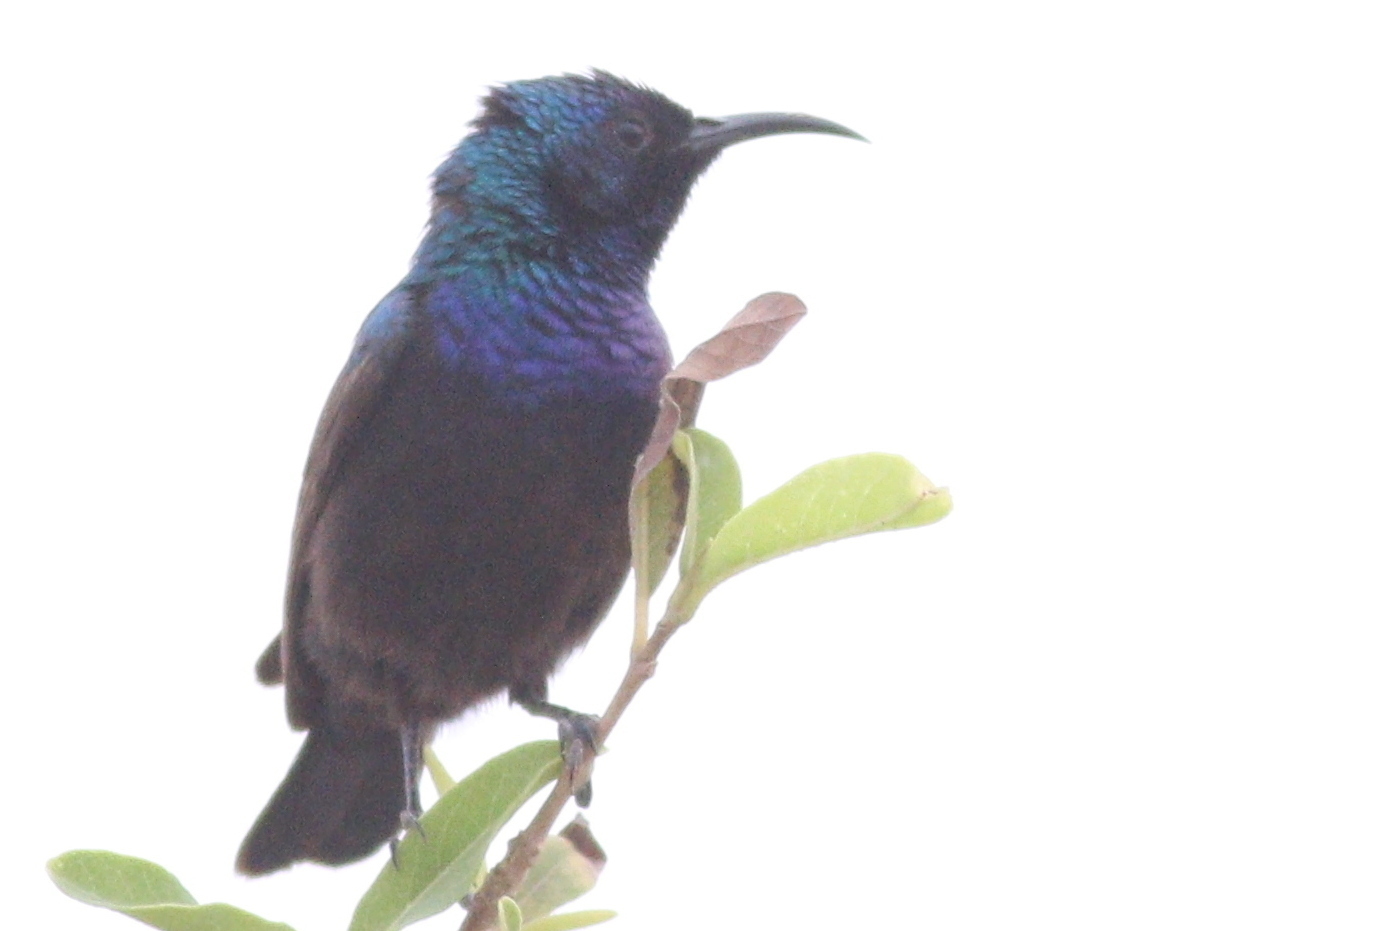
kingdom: Animalia
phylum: Chordata
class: Aves
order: Passeriformes
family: Nectariniidae
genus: Cinnyris
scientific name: Cinnyris osea
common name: Palestine sunbird
